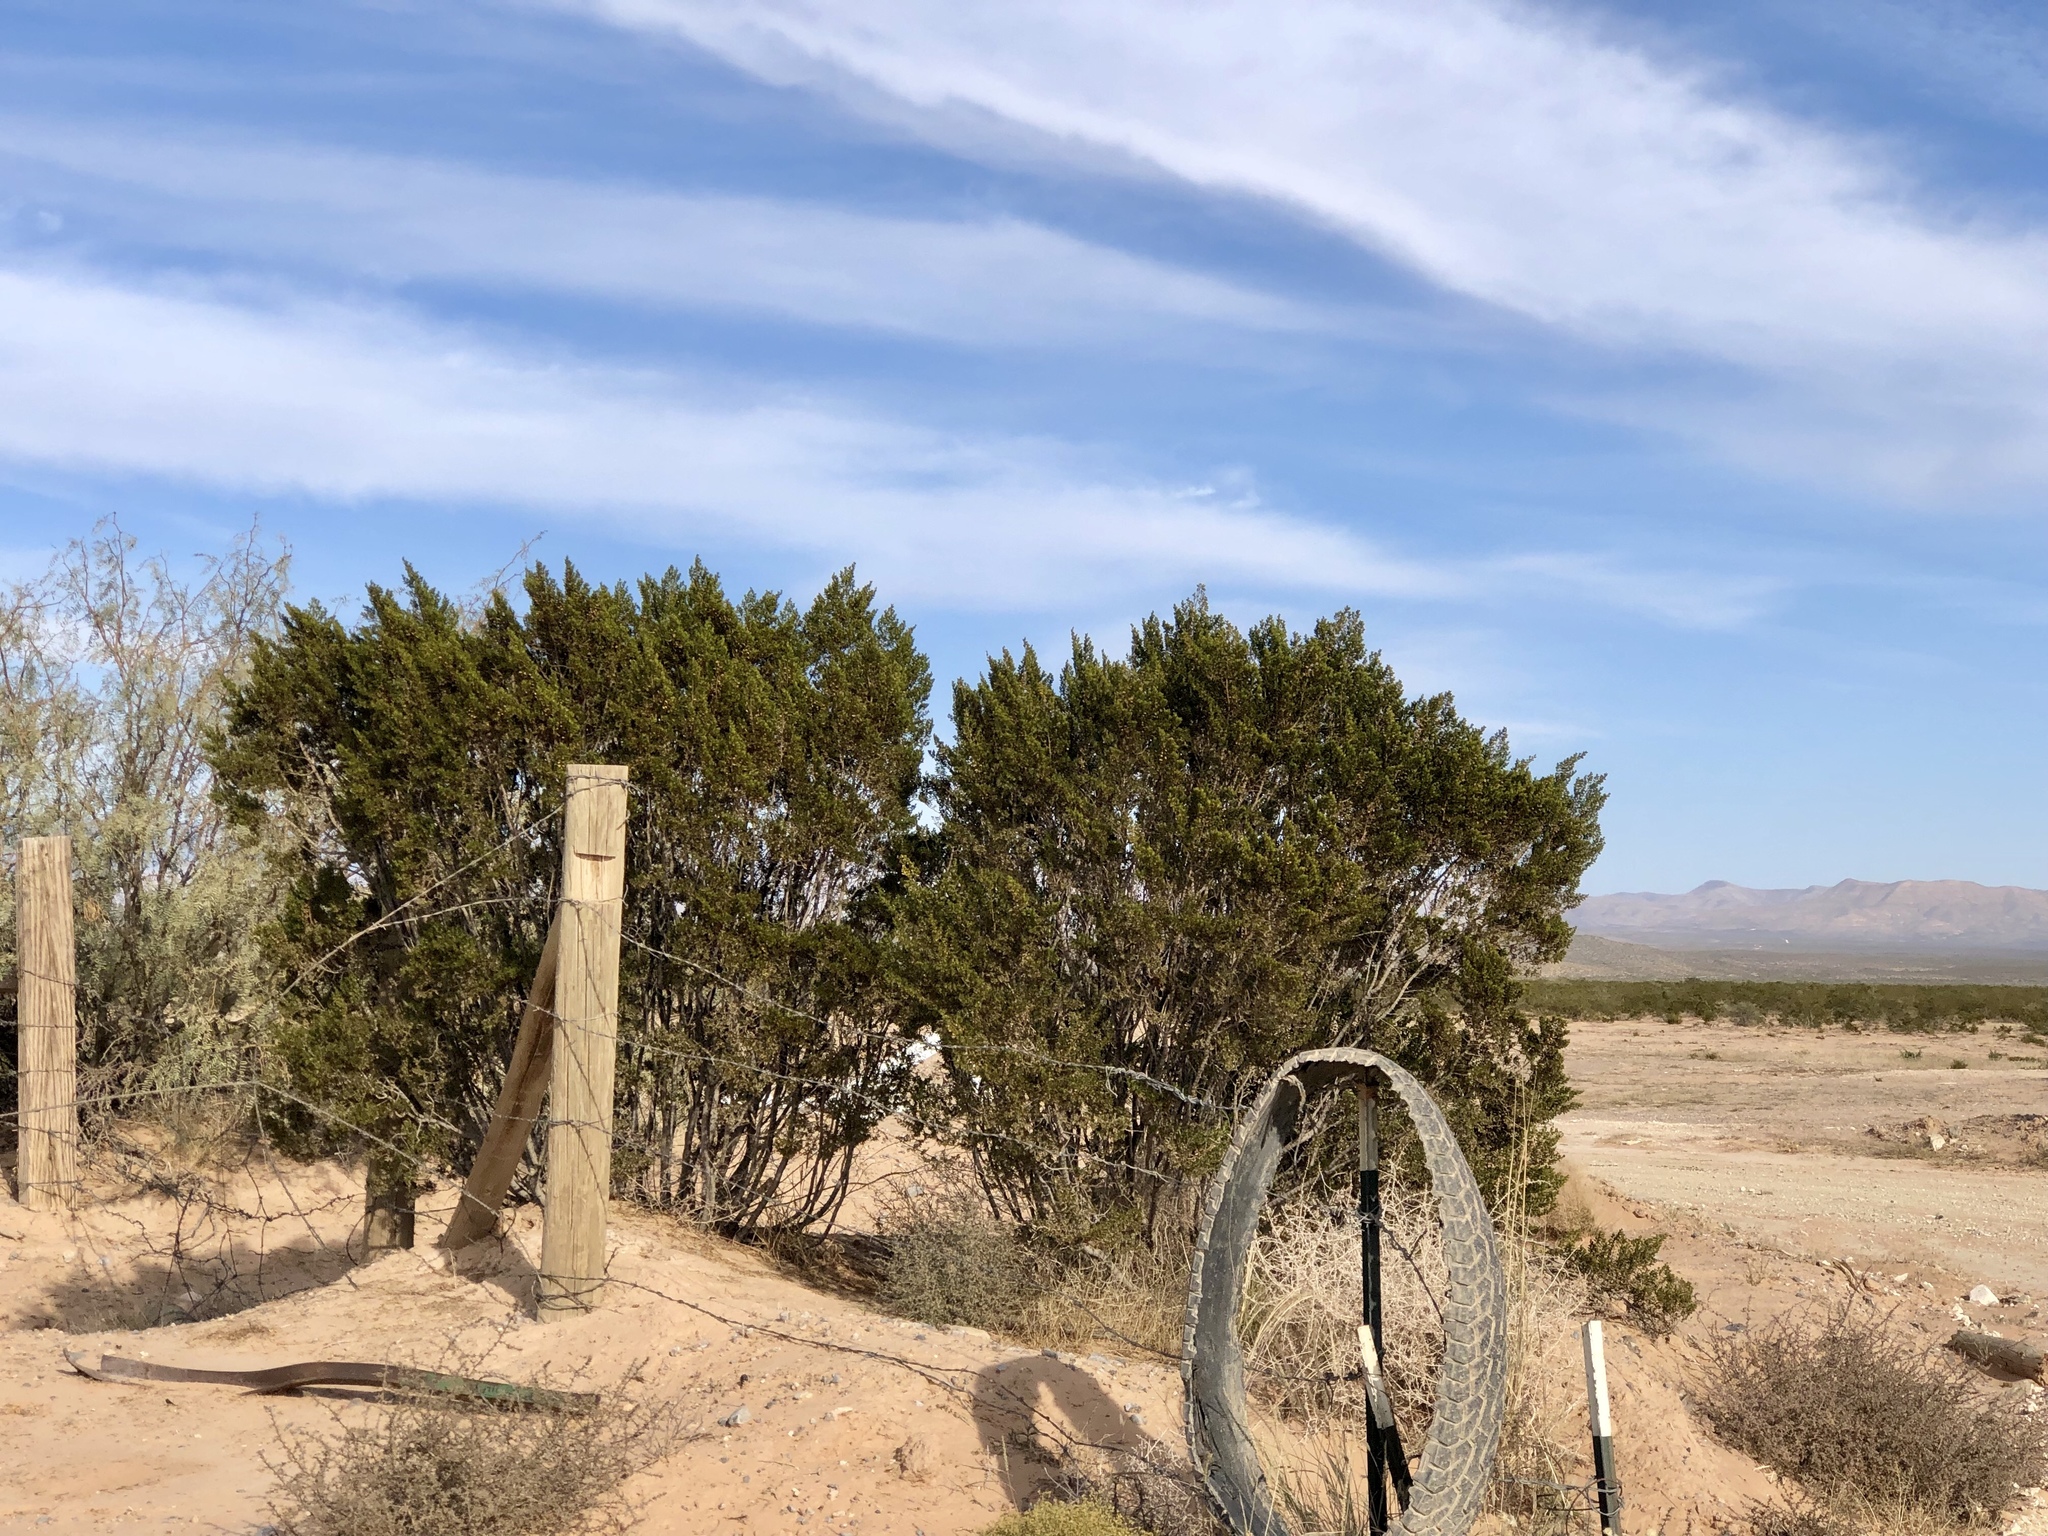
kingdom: Plantae
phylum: Tracheophyta
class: Magnoliopsida
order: Zygophyllales
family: Zygophyllaceae
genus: Larrea
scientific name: Larrea tridentata
